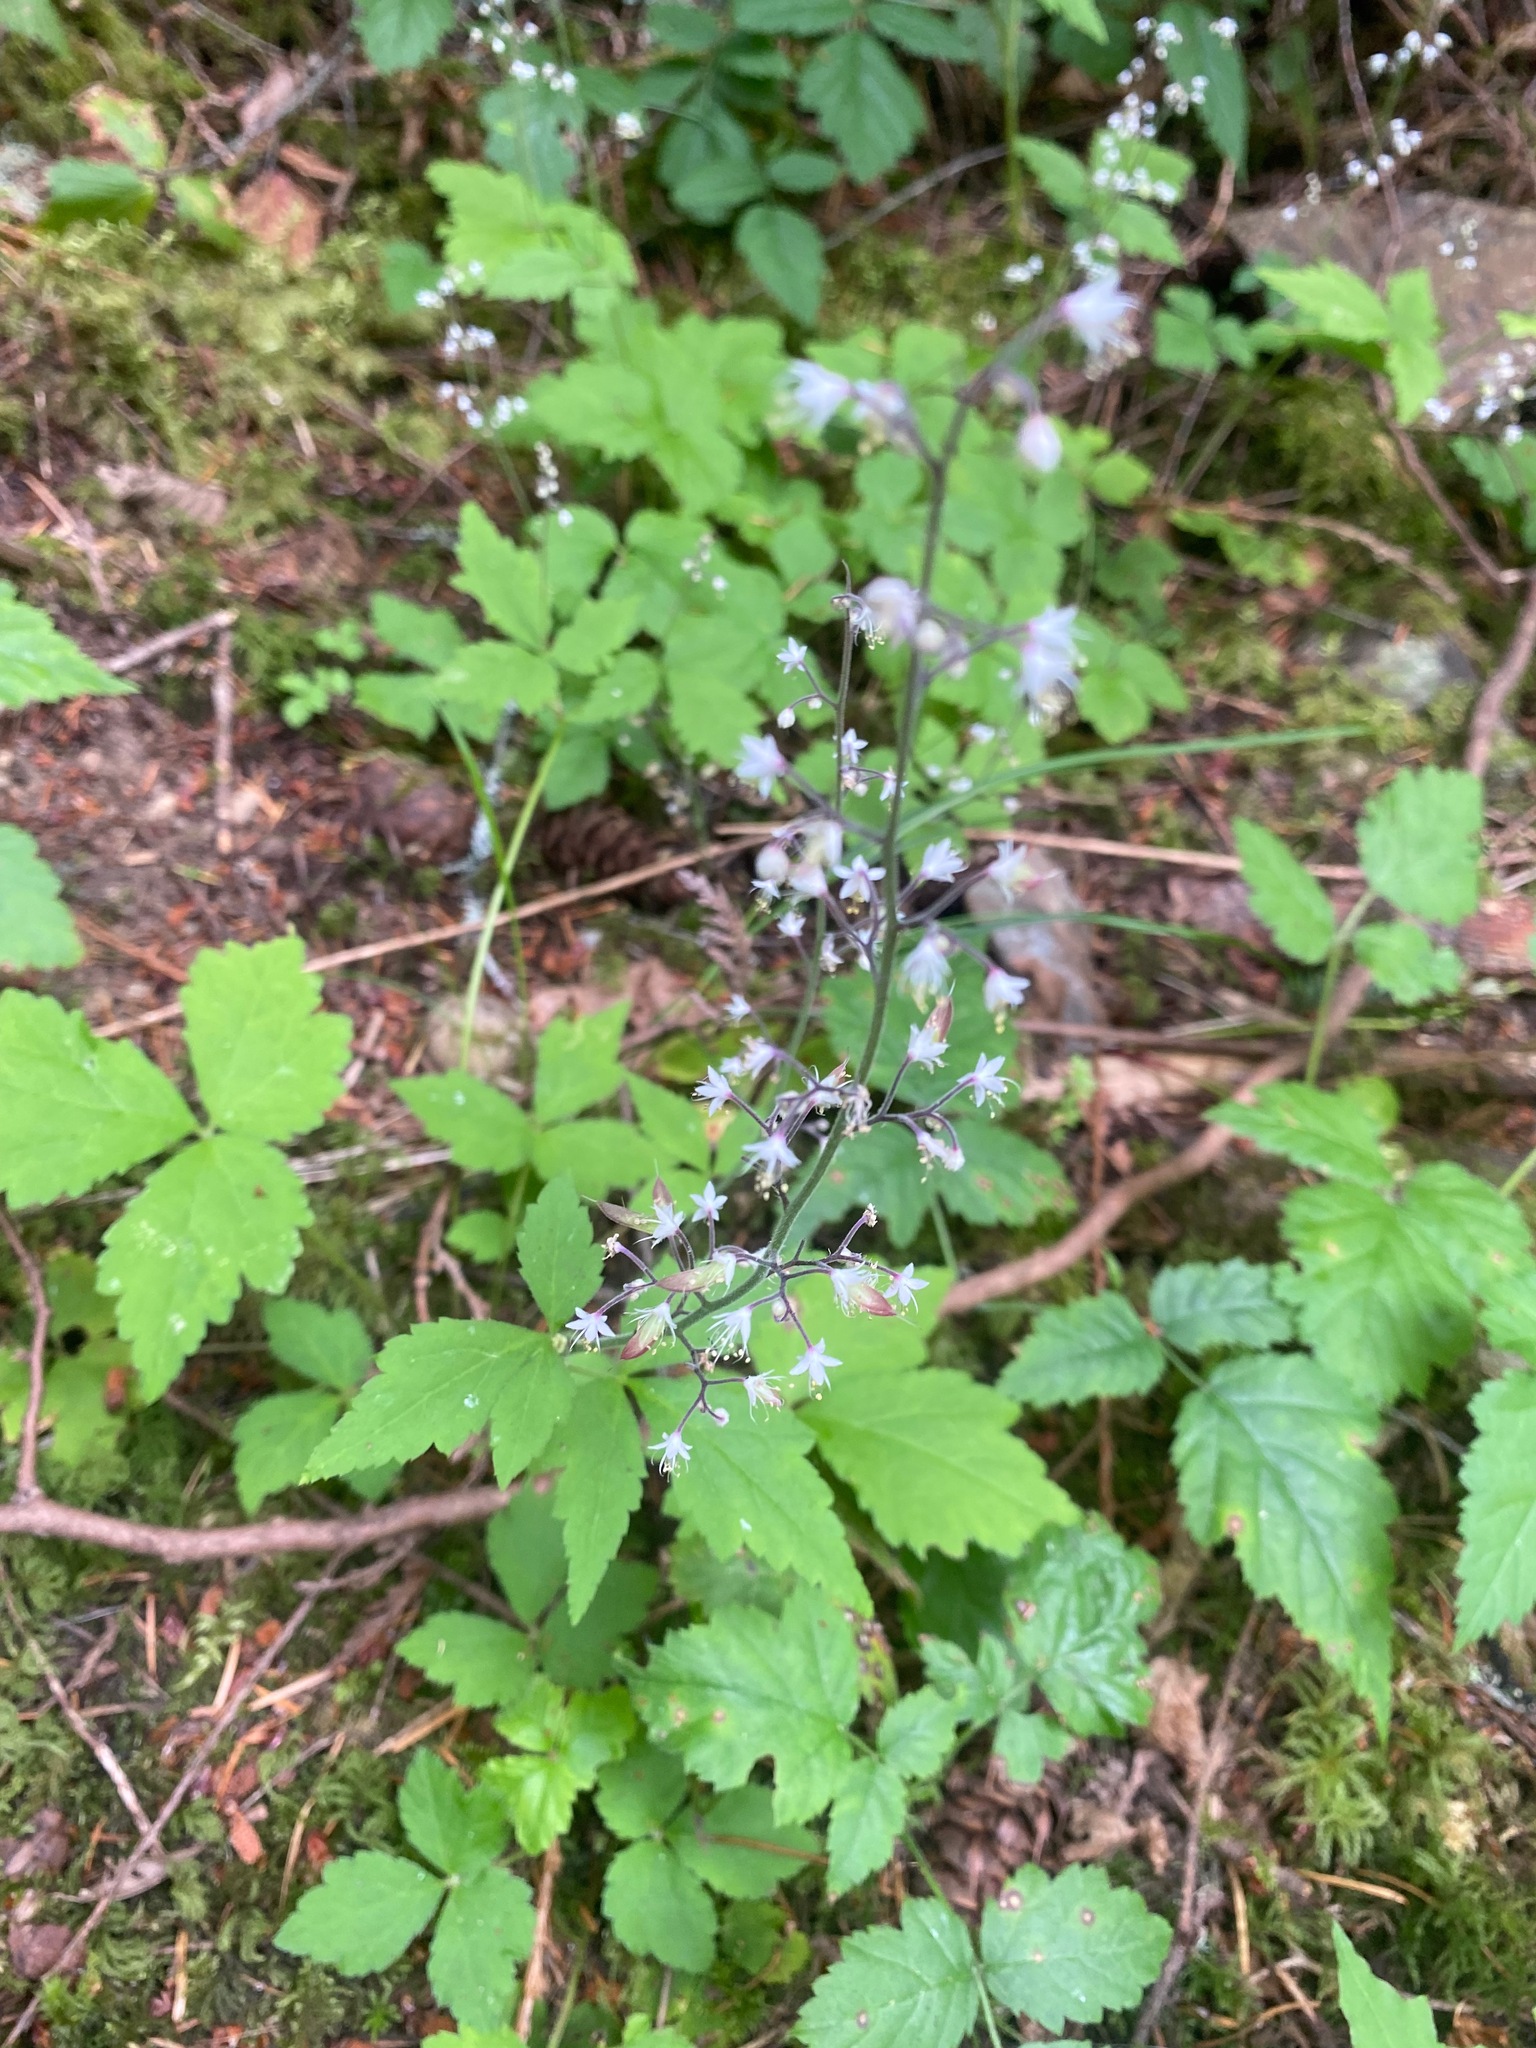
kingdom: Plantae
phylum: Tracheophyta
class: Magnoliopsida
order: Saxifragales
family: Saxifragaceae
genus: Tiarella
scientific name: Tiarella trifoliata
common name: Sugar-scoop
